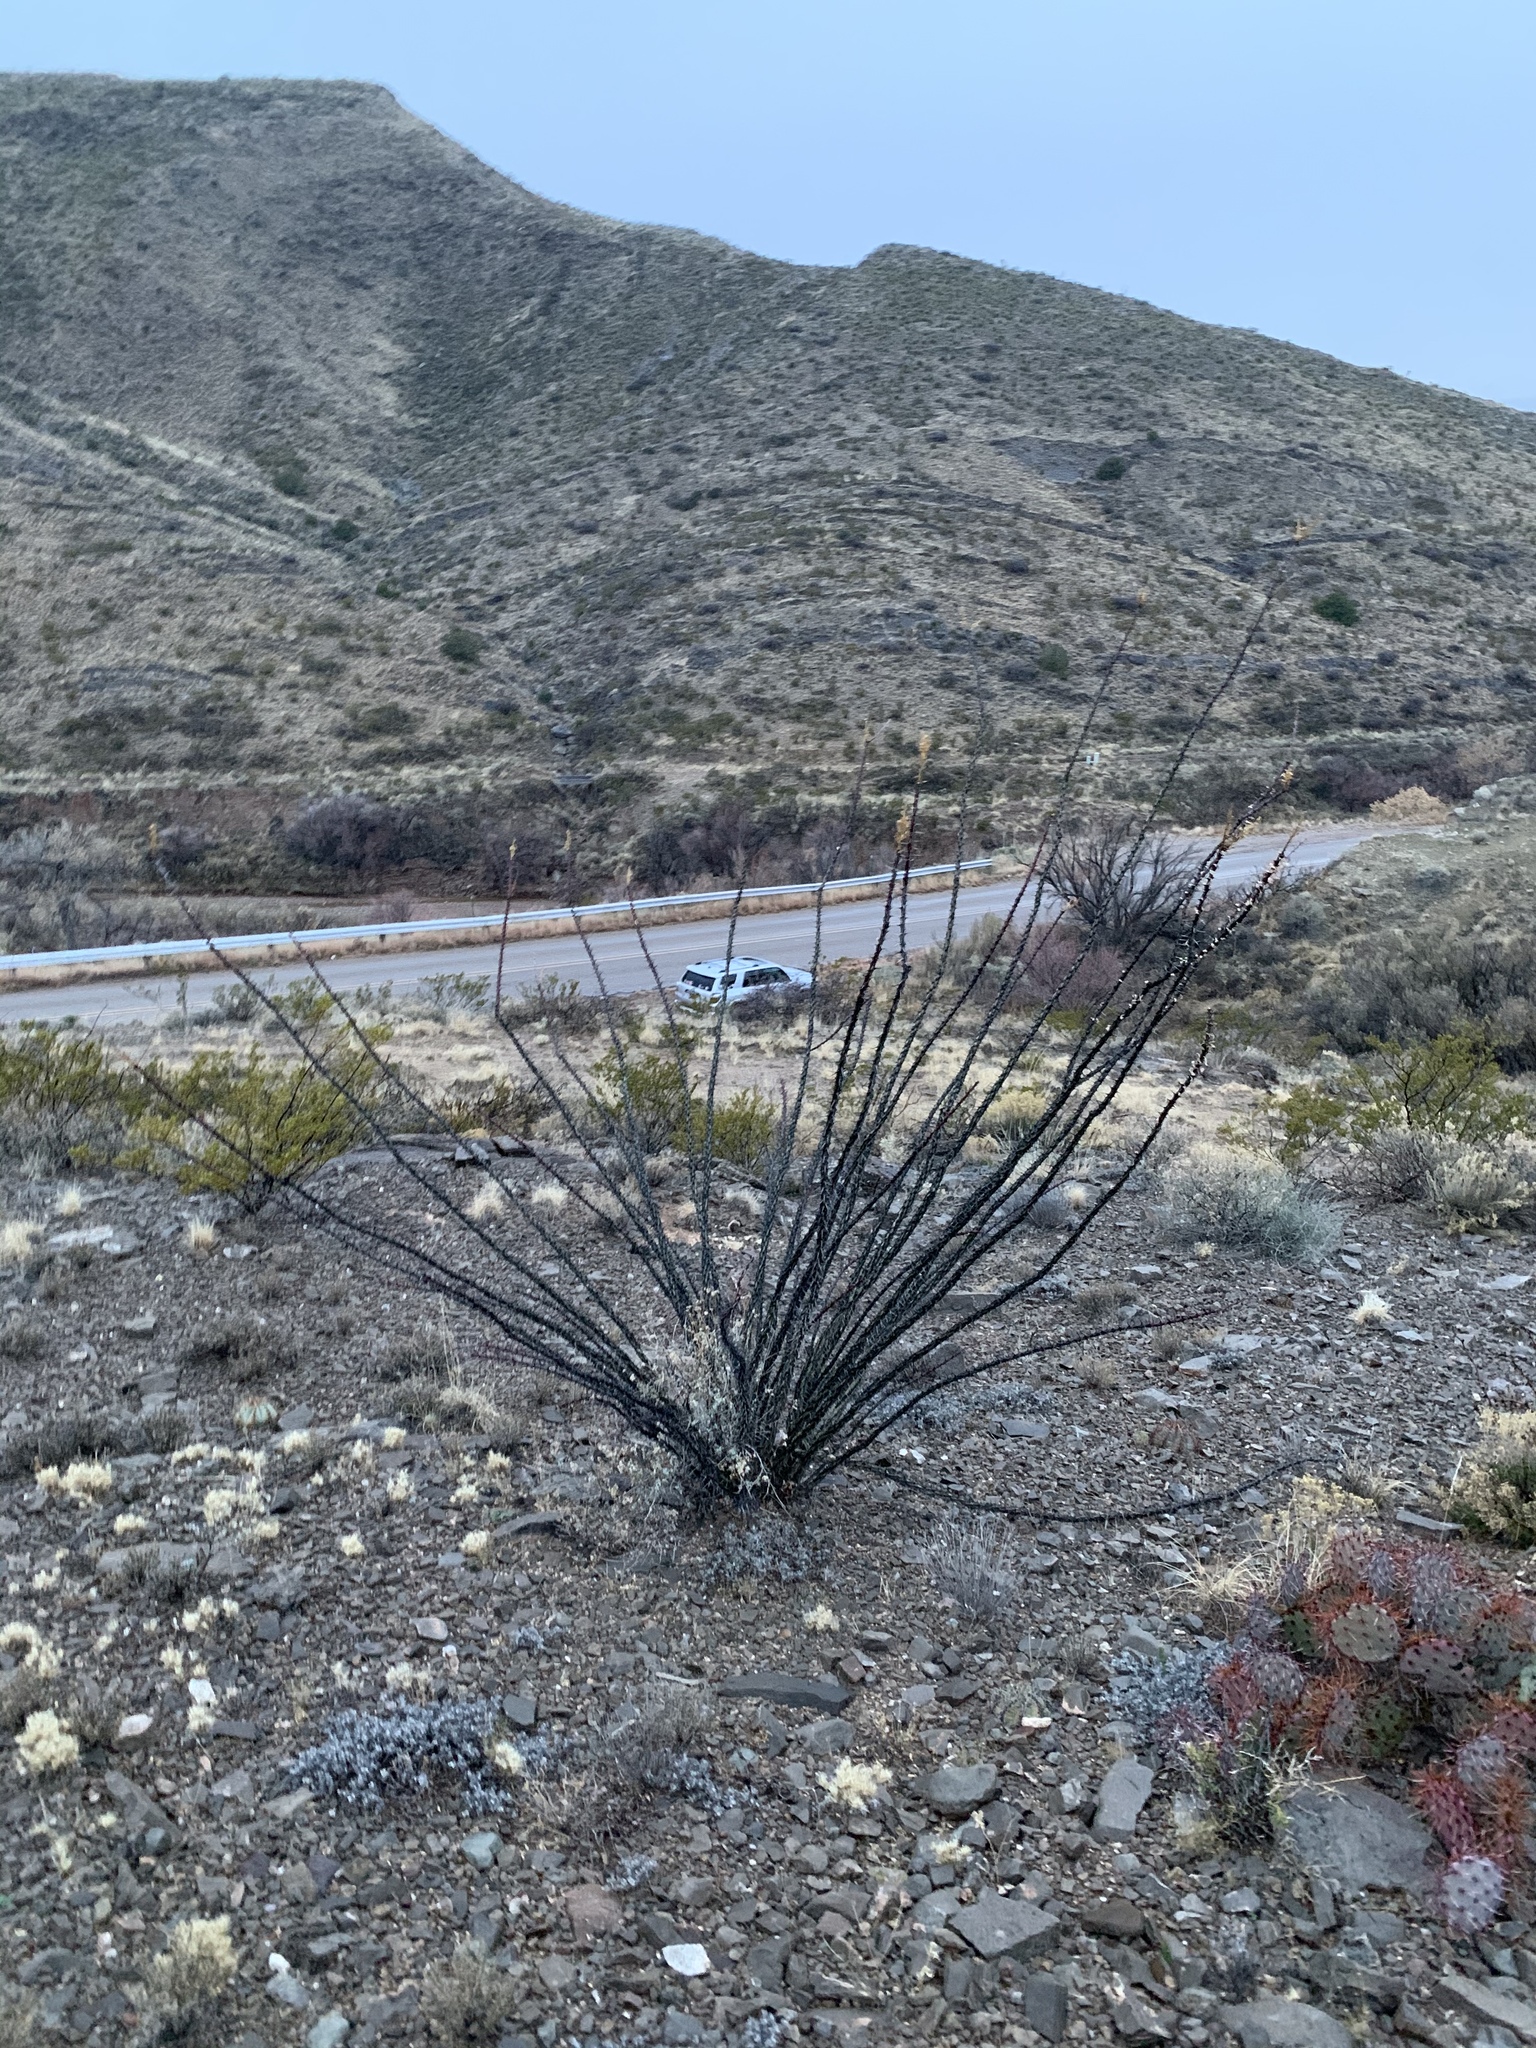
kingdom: Plantae
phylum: Tracheophyta
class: Magnoliopsida
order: Ericales
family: Fouquieriaceae
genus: Fouquieria
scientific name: Fouquieria splendens
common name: Vine-cactus
